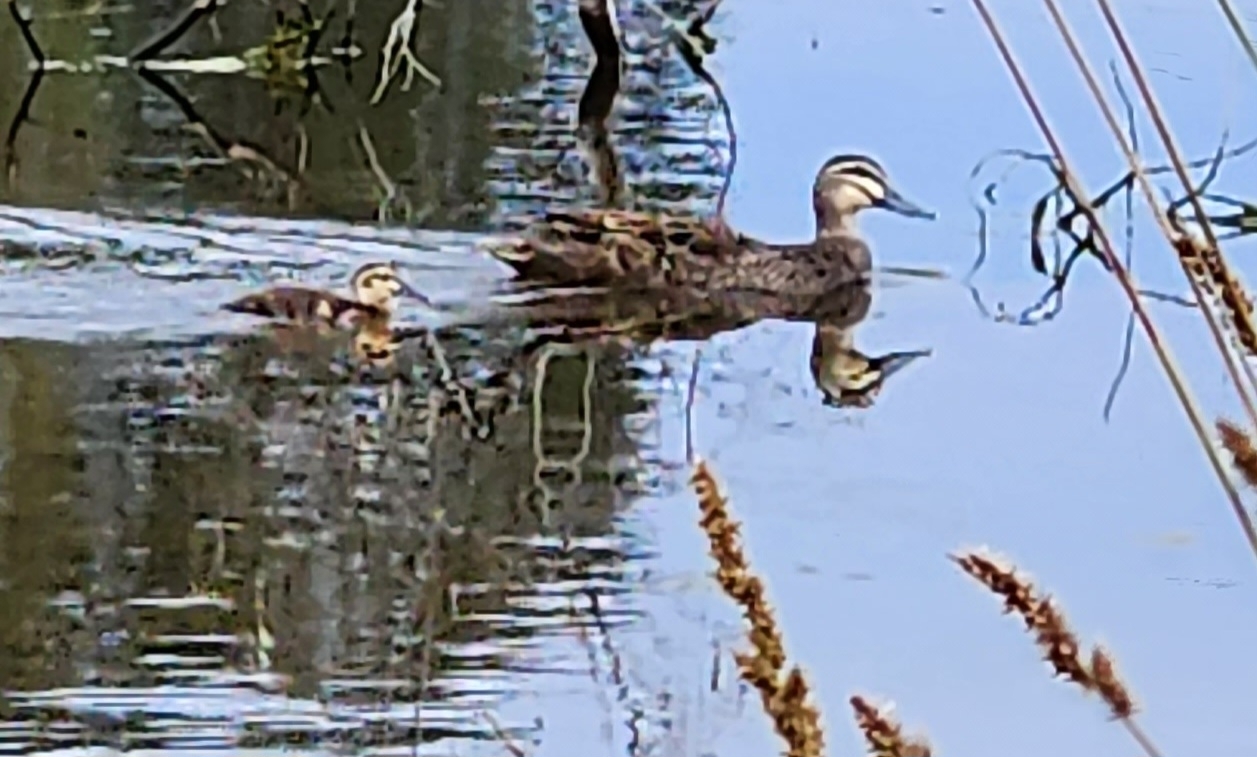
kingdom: Animalia
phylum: Chordata
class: Aves
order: Anseriformes
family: Anatidae
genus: Anas
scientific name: Anas superciliosa
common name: Pacific black duck
